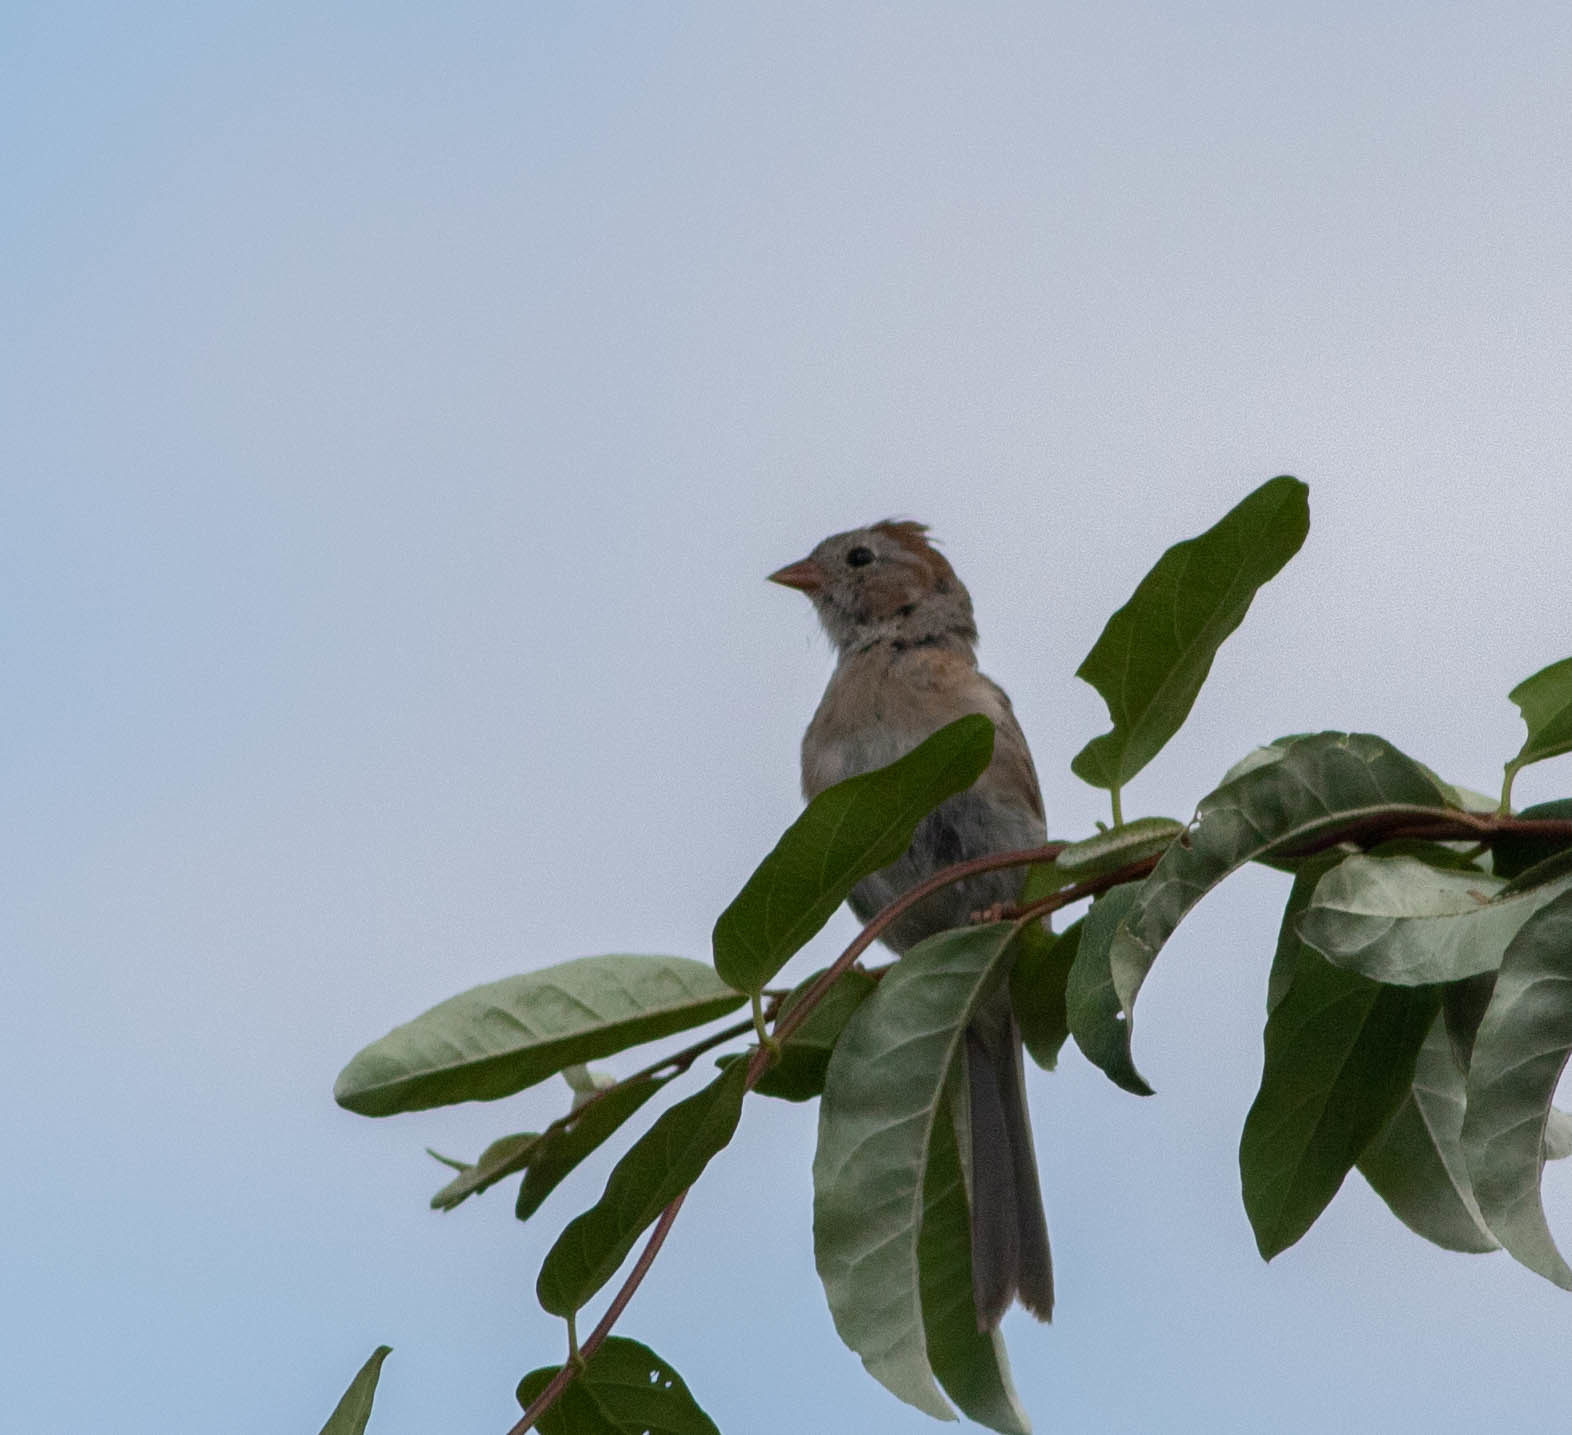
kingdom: Animalia
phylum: Chordata
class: Aves
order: Passeriformes
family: Passerellidae
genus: Spizella
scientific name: Spizella pusilla
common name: Field sparrow
